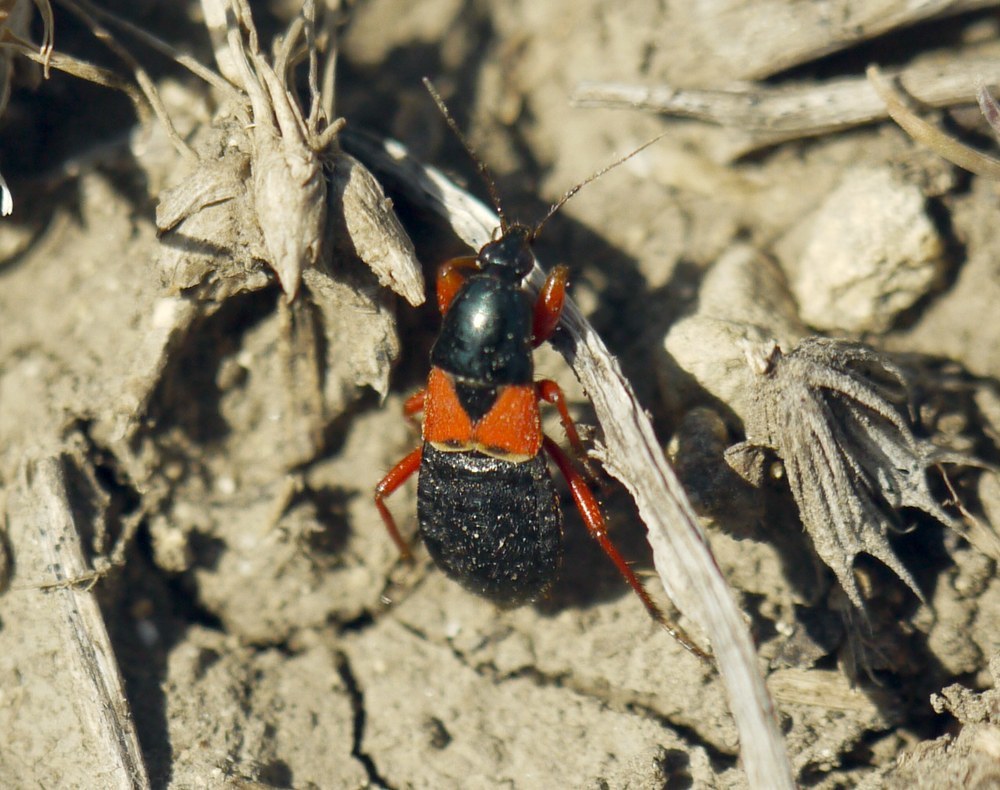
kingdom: Animalia
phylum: Arthropoda
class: Insecta
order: Hemiptera
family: Nabidae
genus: Prostemma
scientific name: Prostemma guttula
